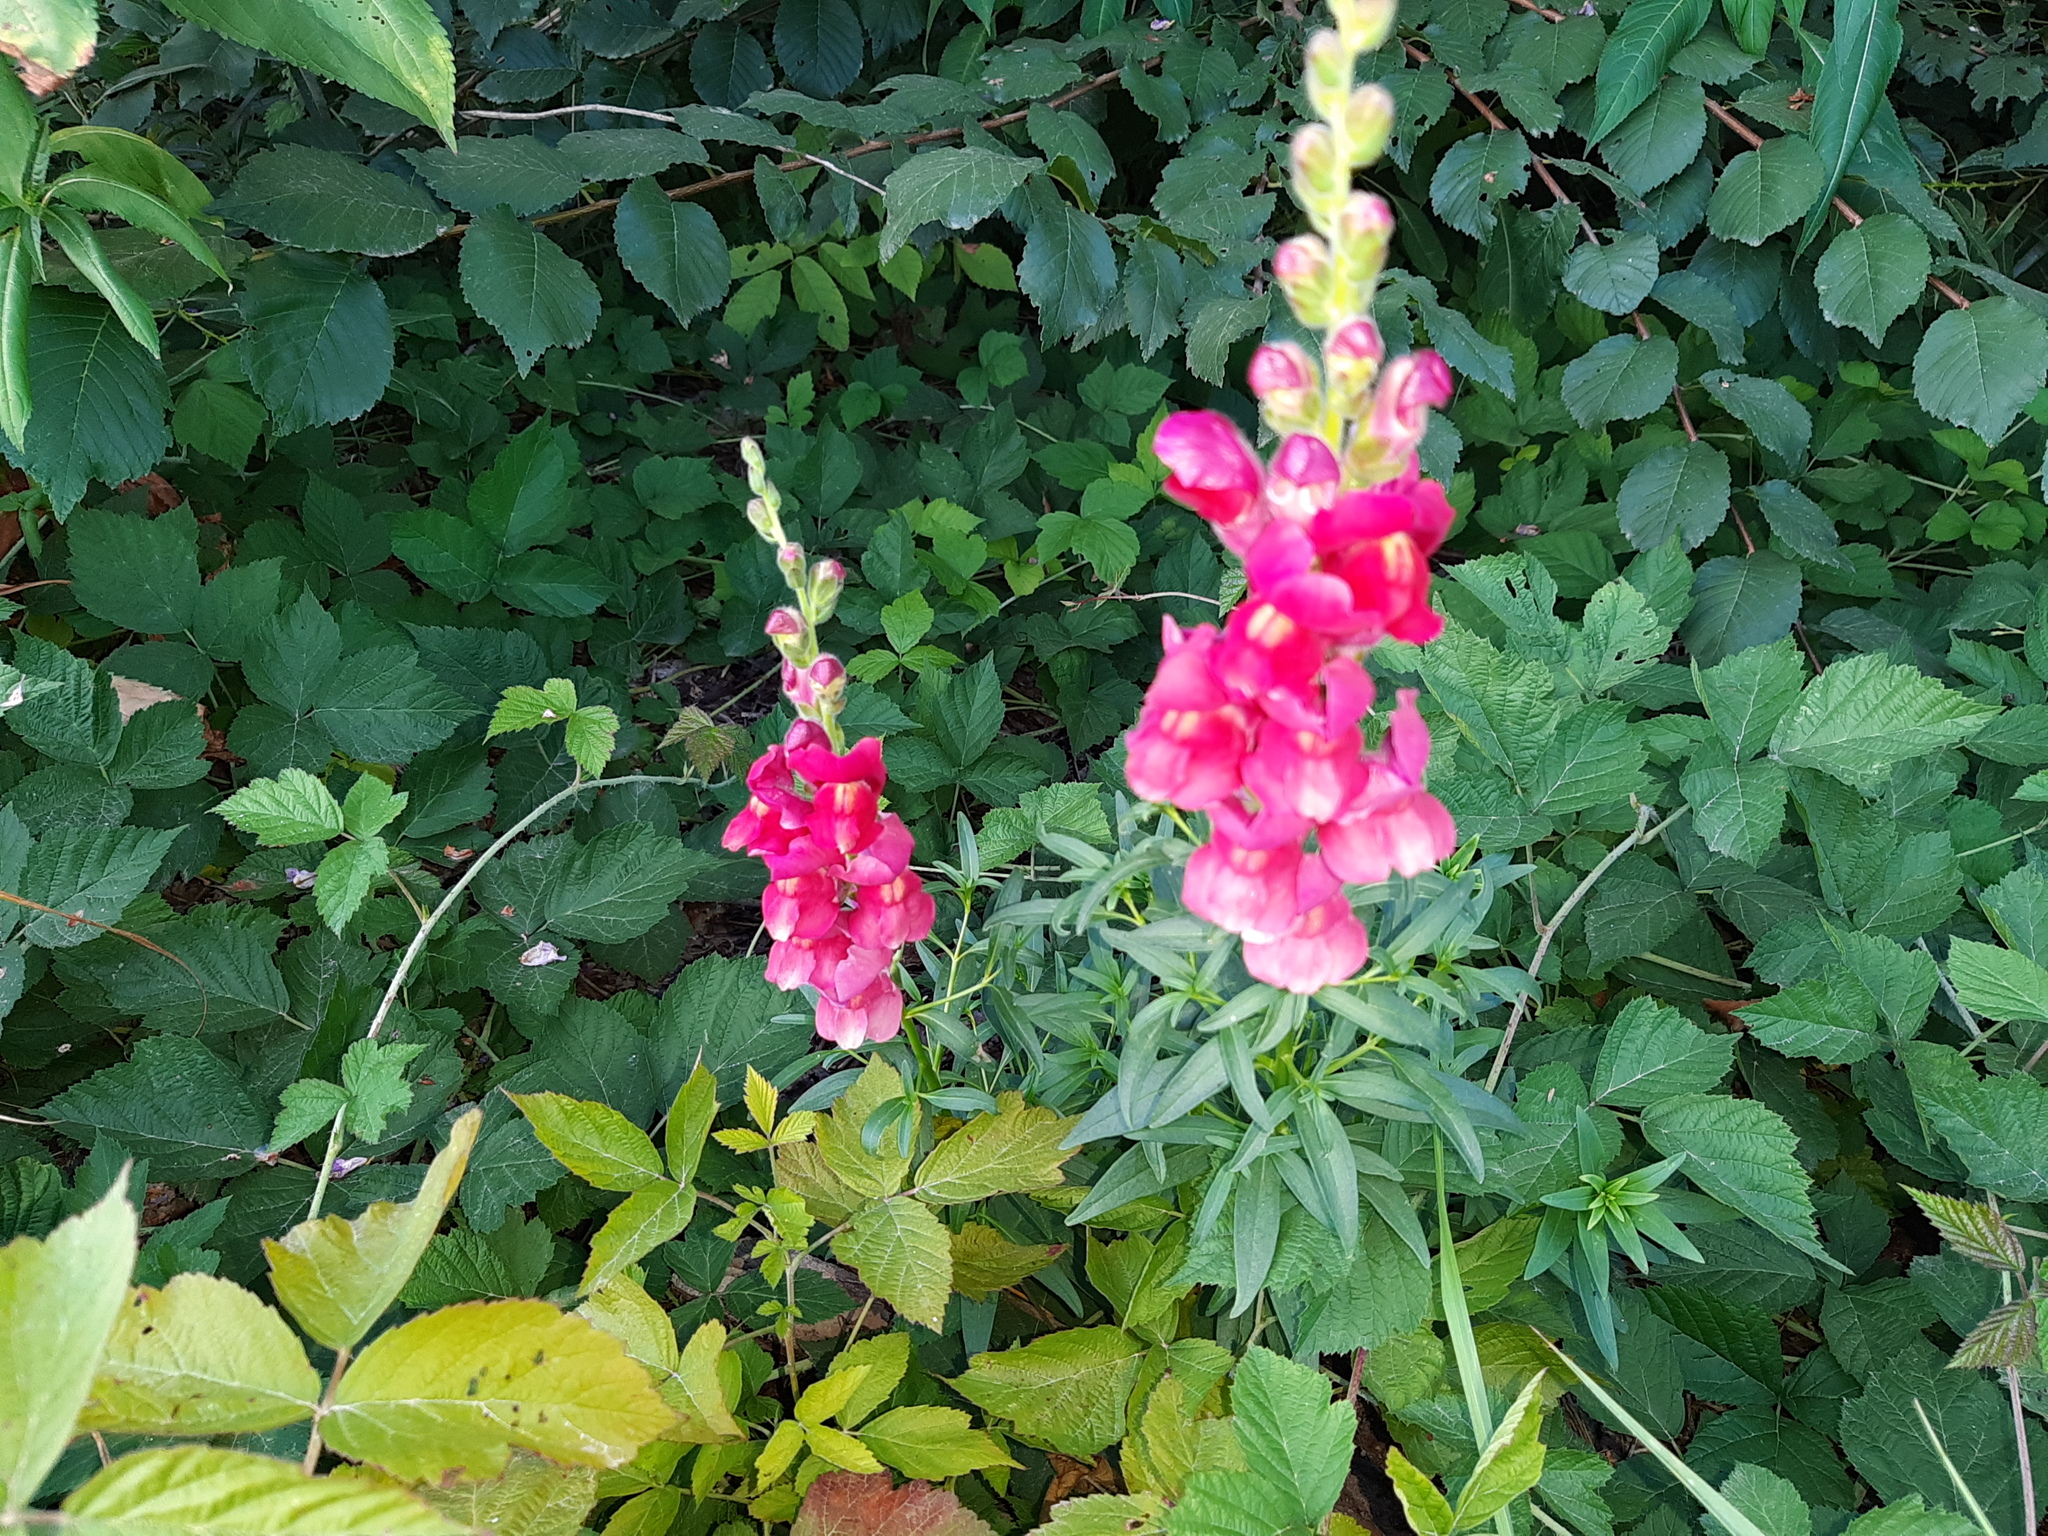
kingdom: Plantae
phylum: Tracheophyta
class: Magnoliopsida
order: Lamiales
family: Plantaginaceae
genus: Antirrhinum
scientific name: Antirrhinum majus
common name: Snapdragon
